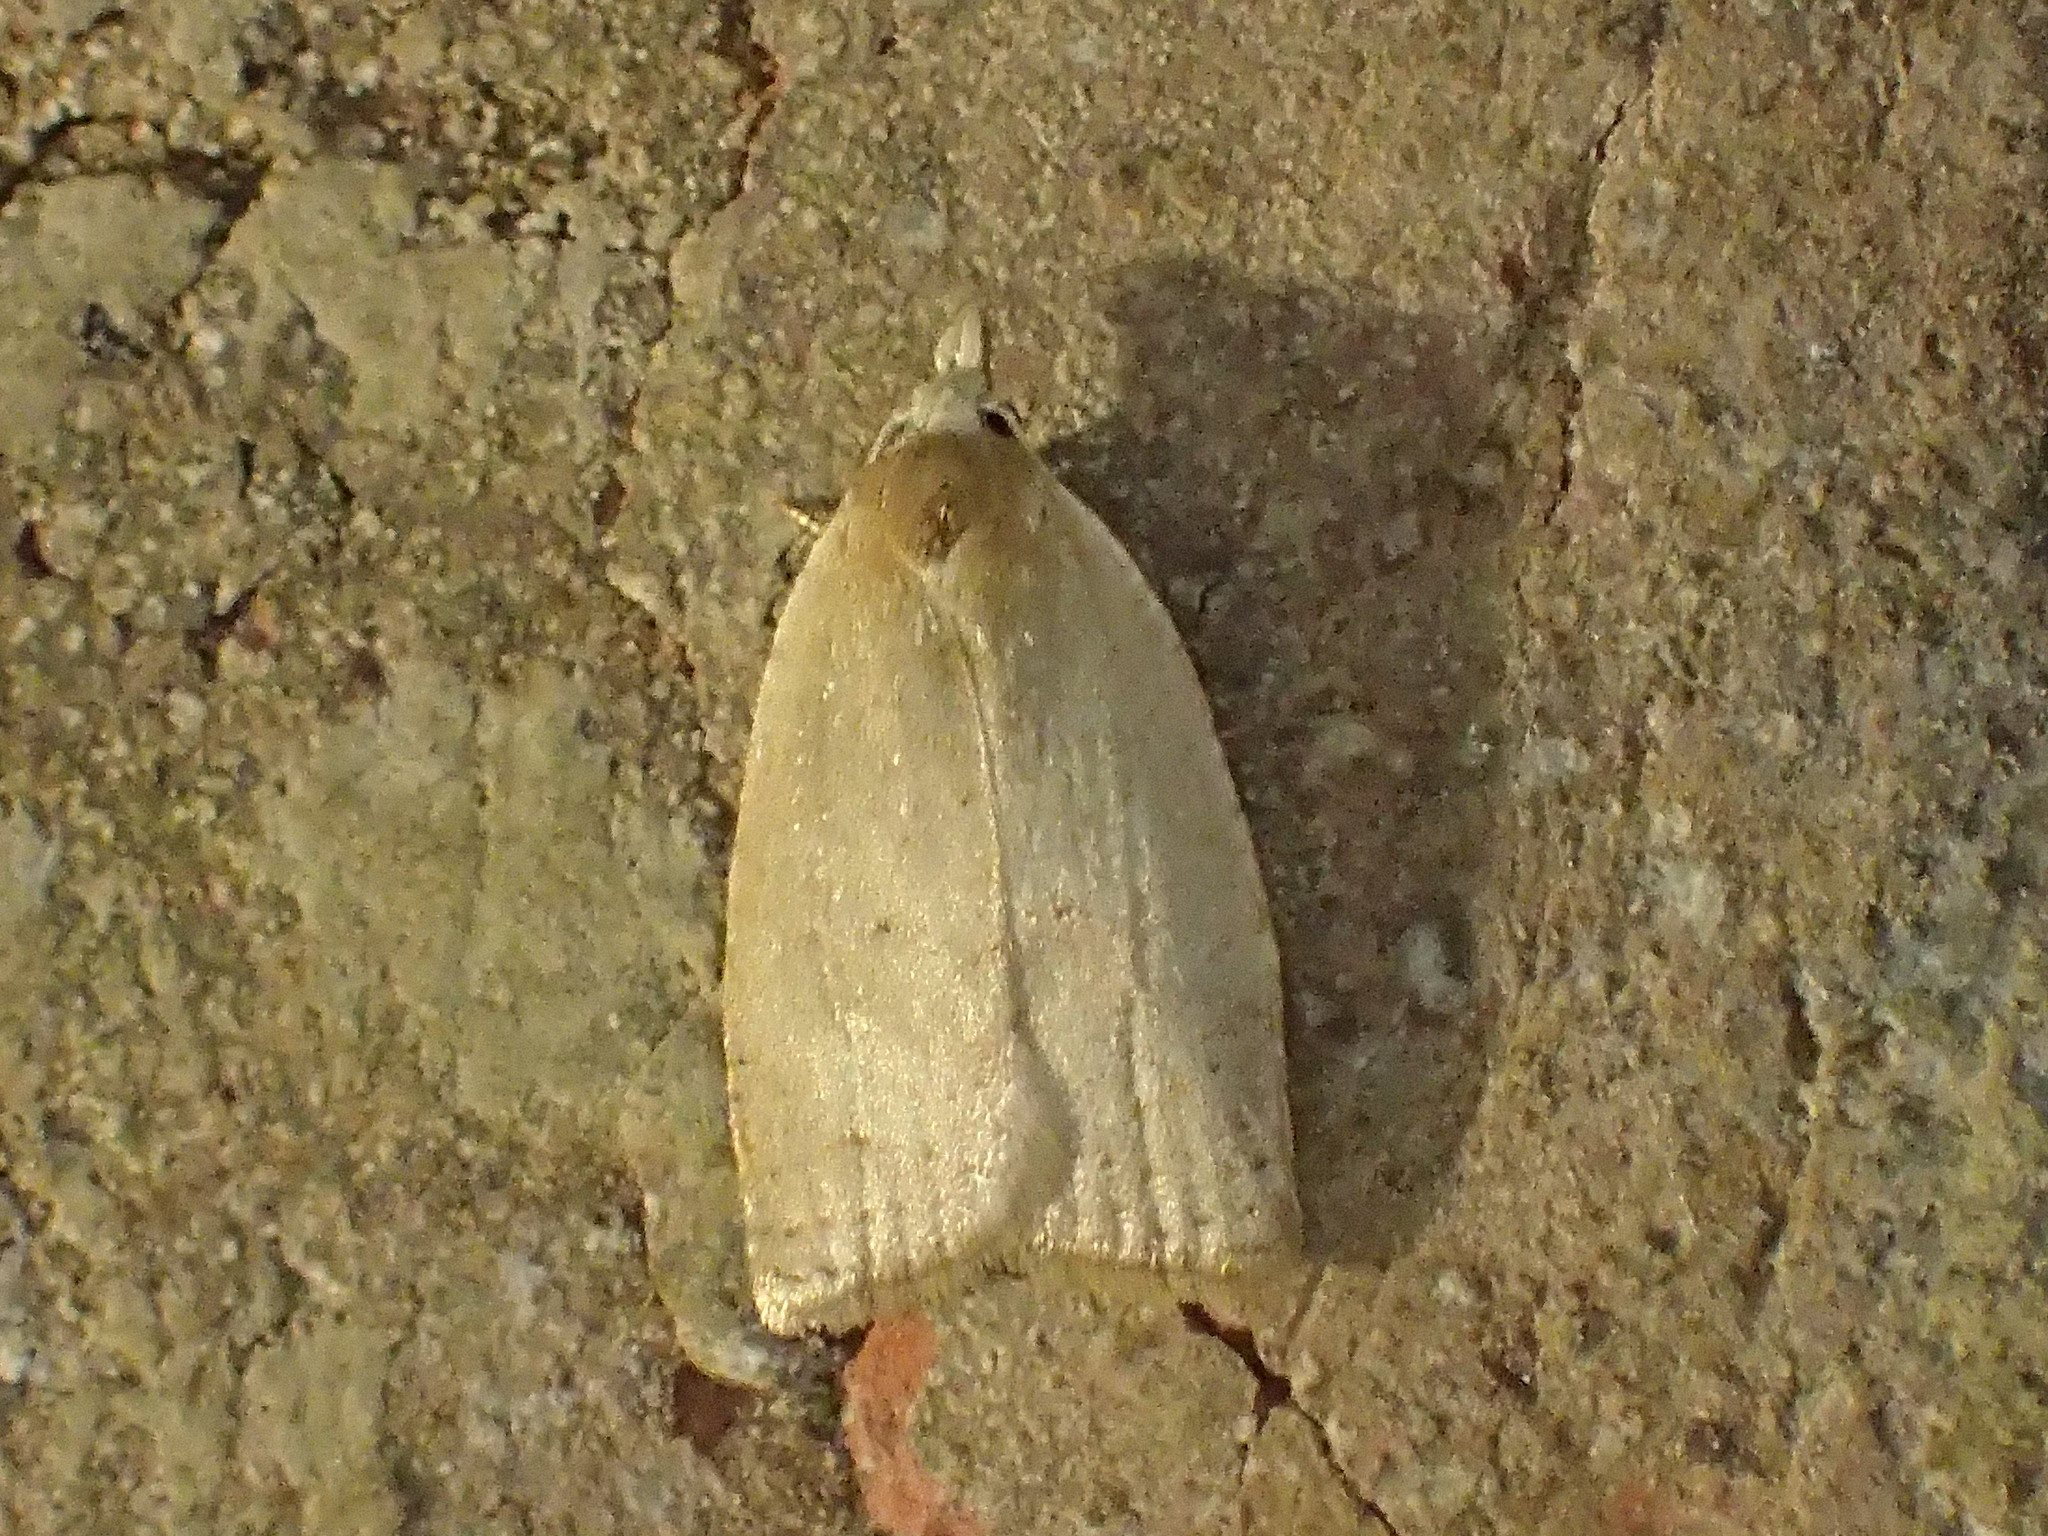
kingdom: Animalia
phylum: Arthropoda
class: Insecta
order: Lepidoptera
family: Tortricidae
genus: Sparganothoides
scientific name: Sparganothoides lentiginosana
